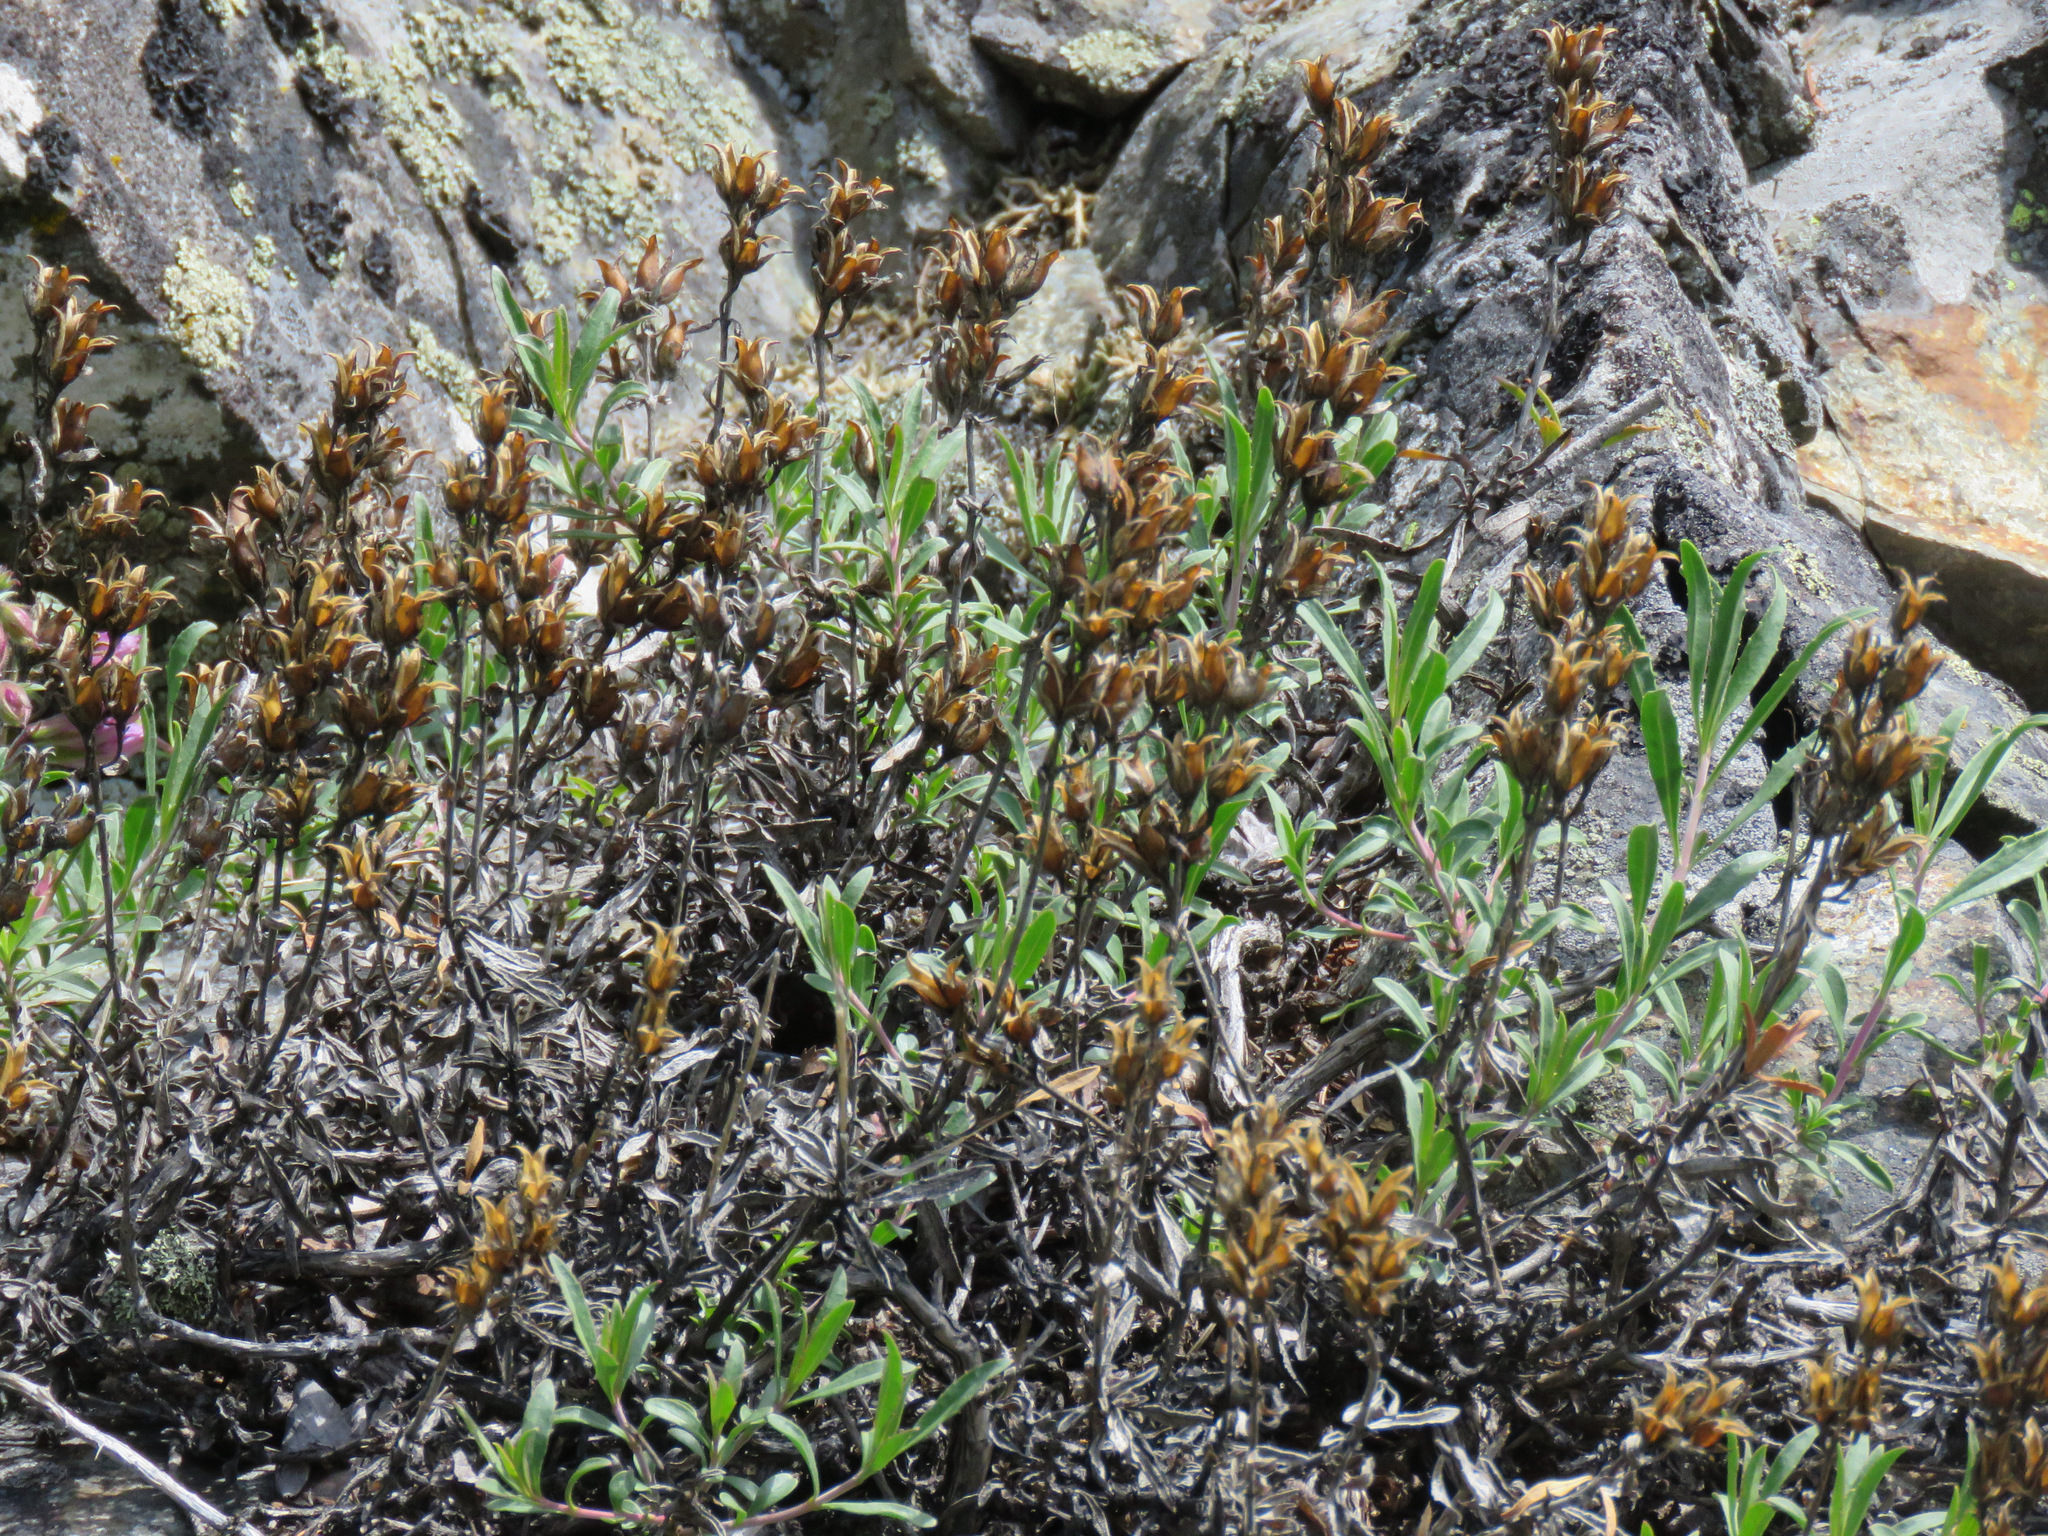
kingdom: Plantae
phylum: Tracheophyta
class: Magnoliopsida
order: Lamiales
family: Plantaginaceae
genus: Penstemon
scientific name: Penstemon fruticosus
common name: Bush penstemon
